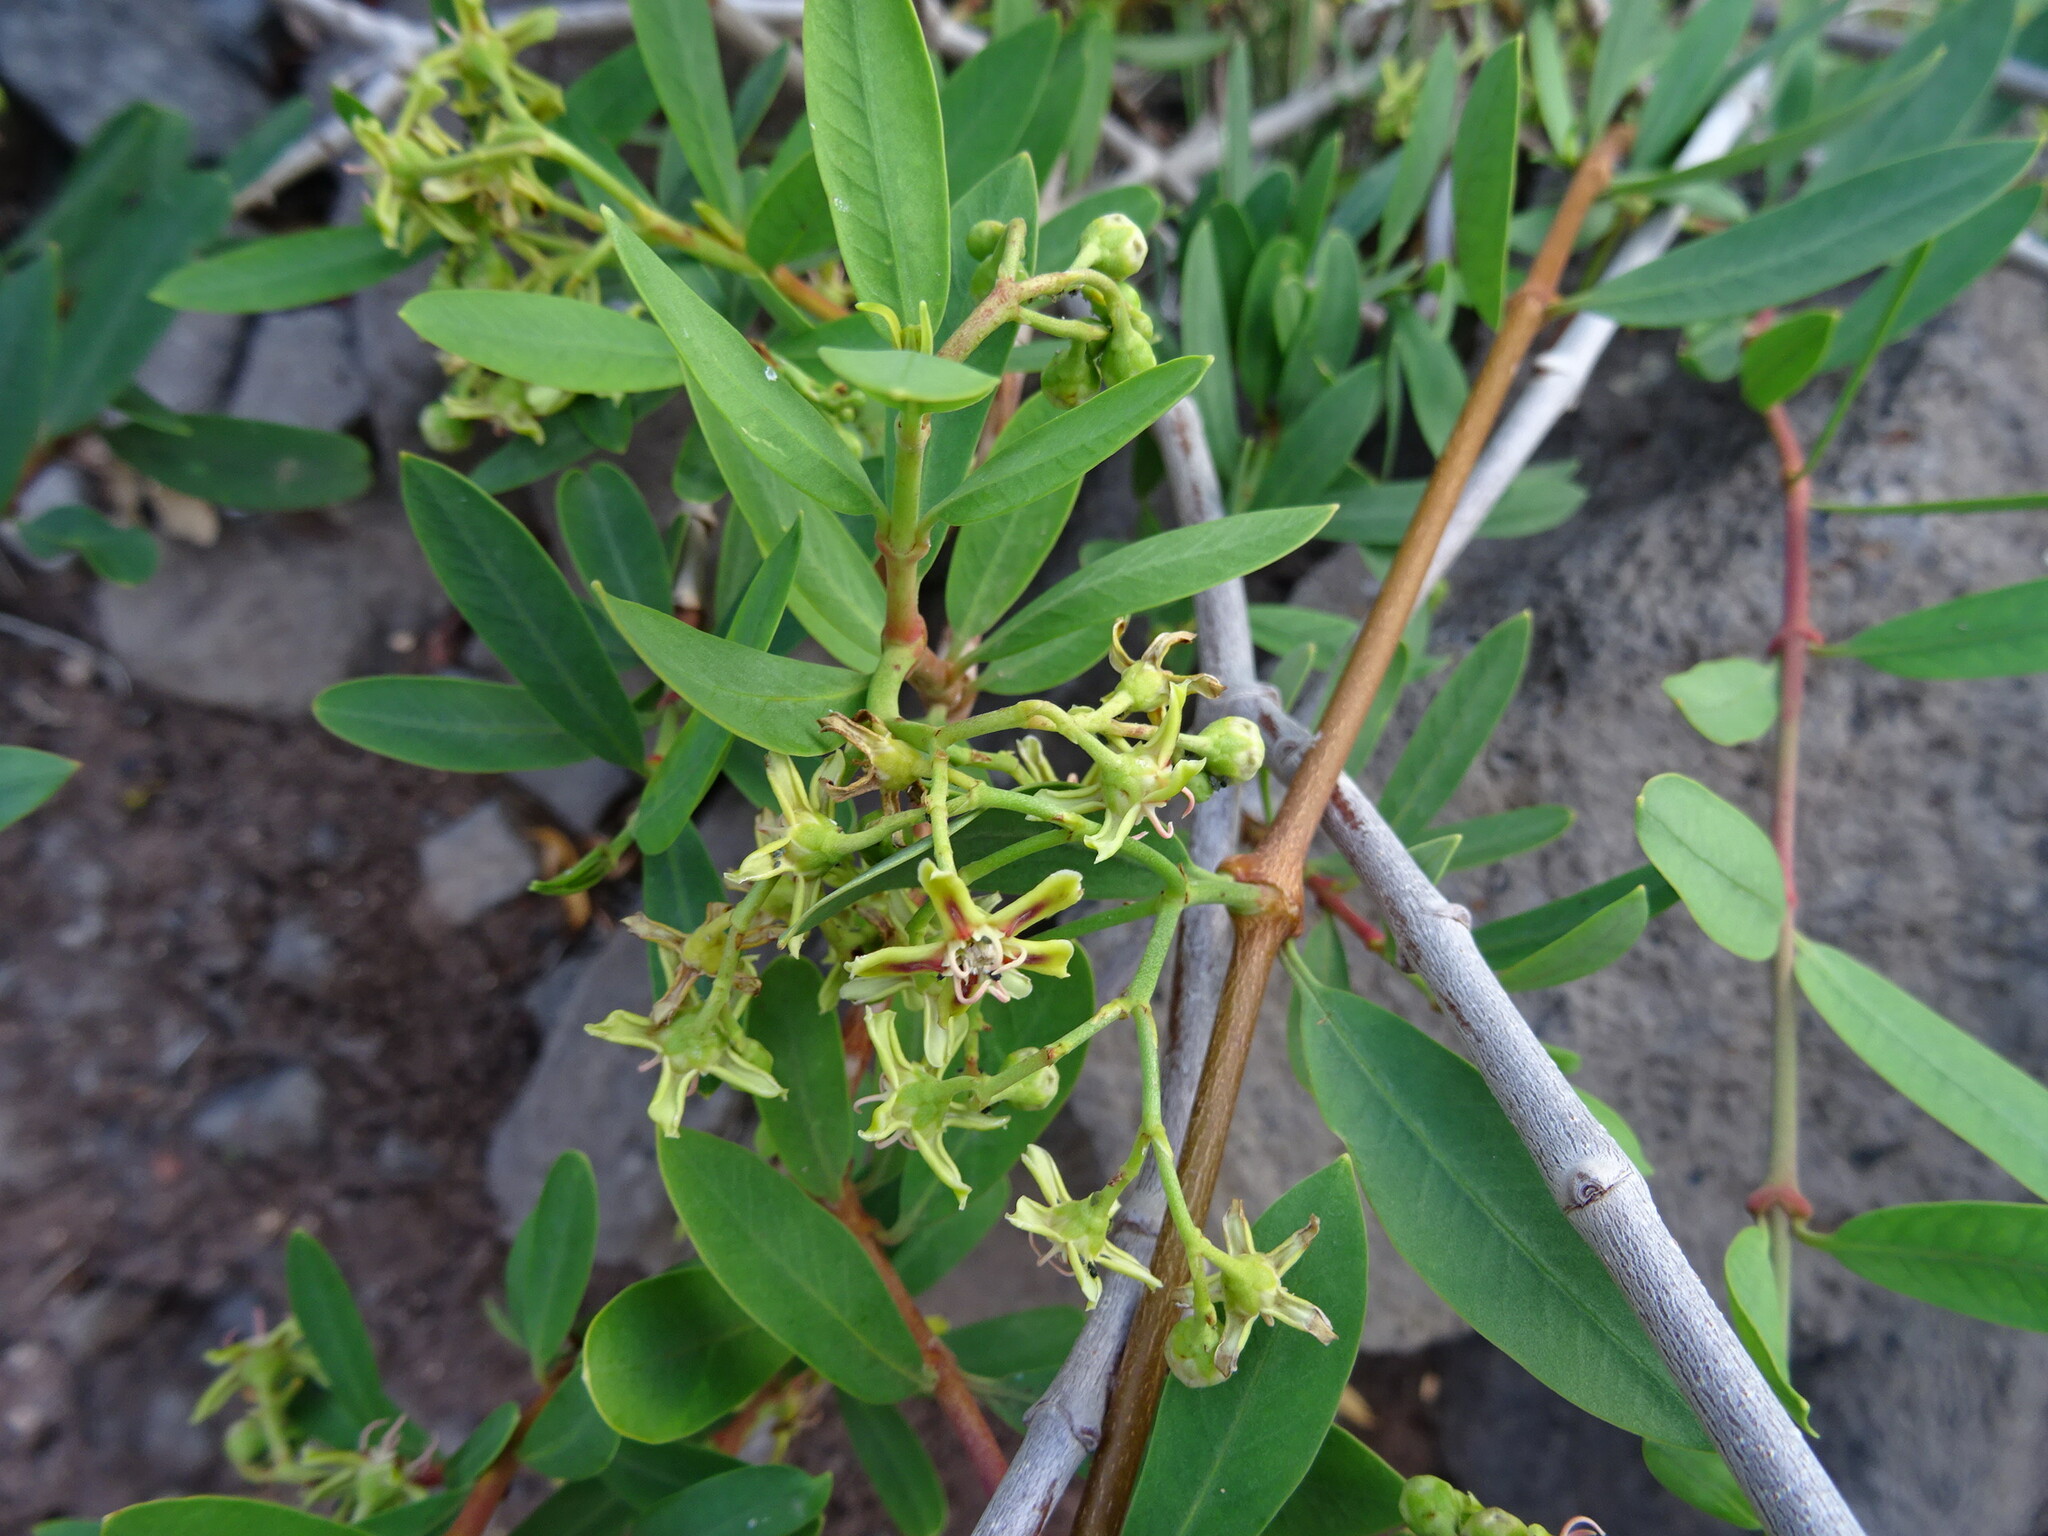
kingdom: Plantae
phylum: Tracheophyta
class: Magnoliopsida
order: Gentianales
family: Apocynaceae
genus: Periploca
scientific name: Periploca laevigata
